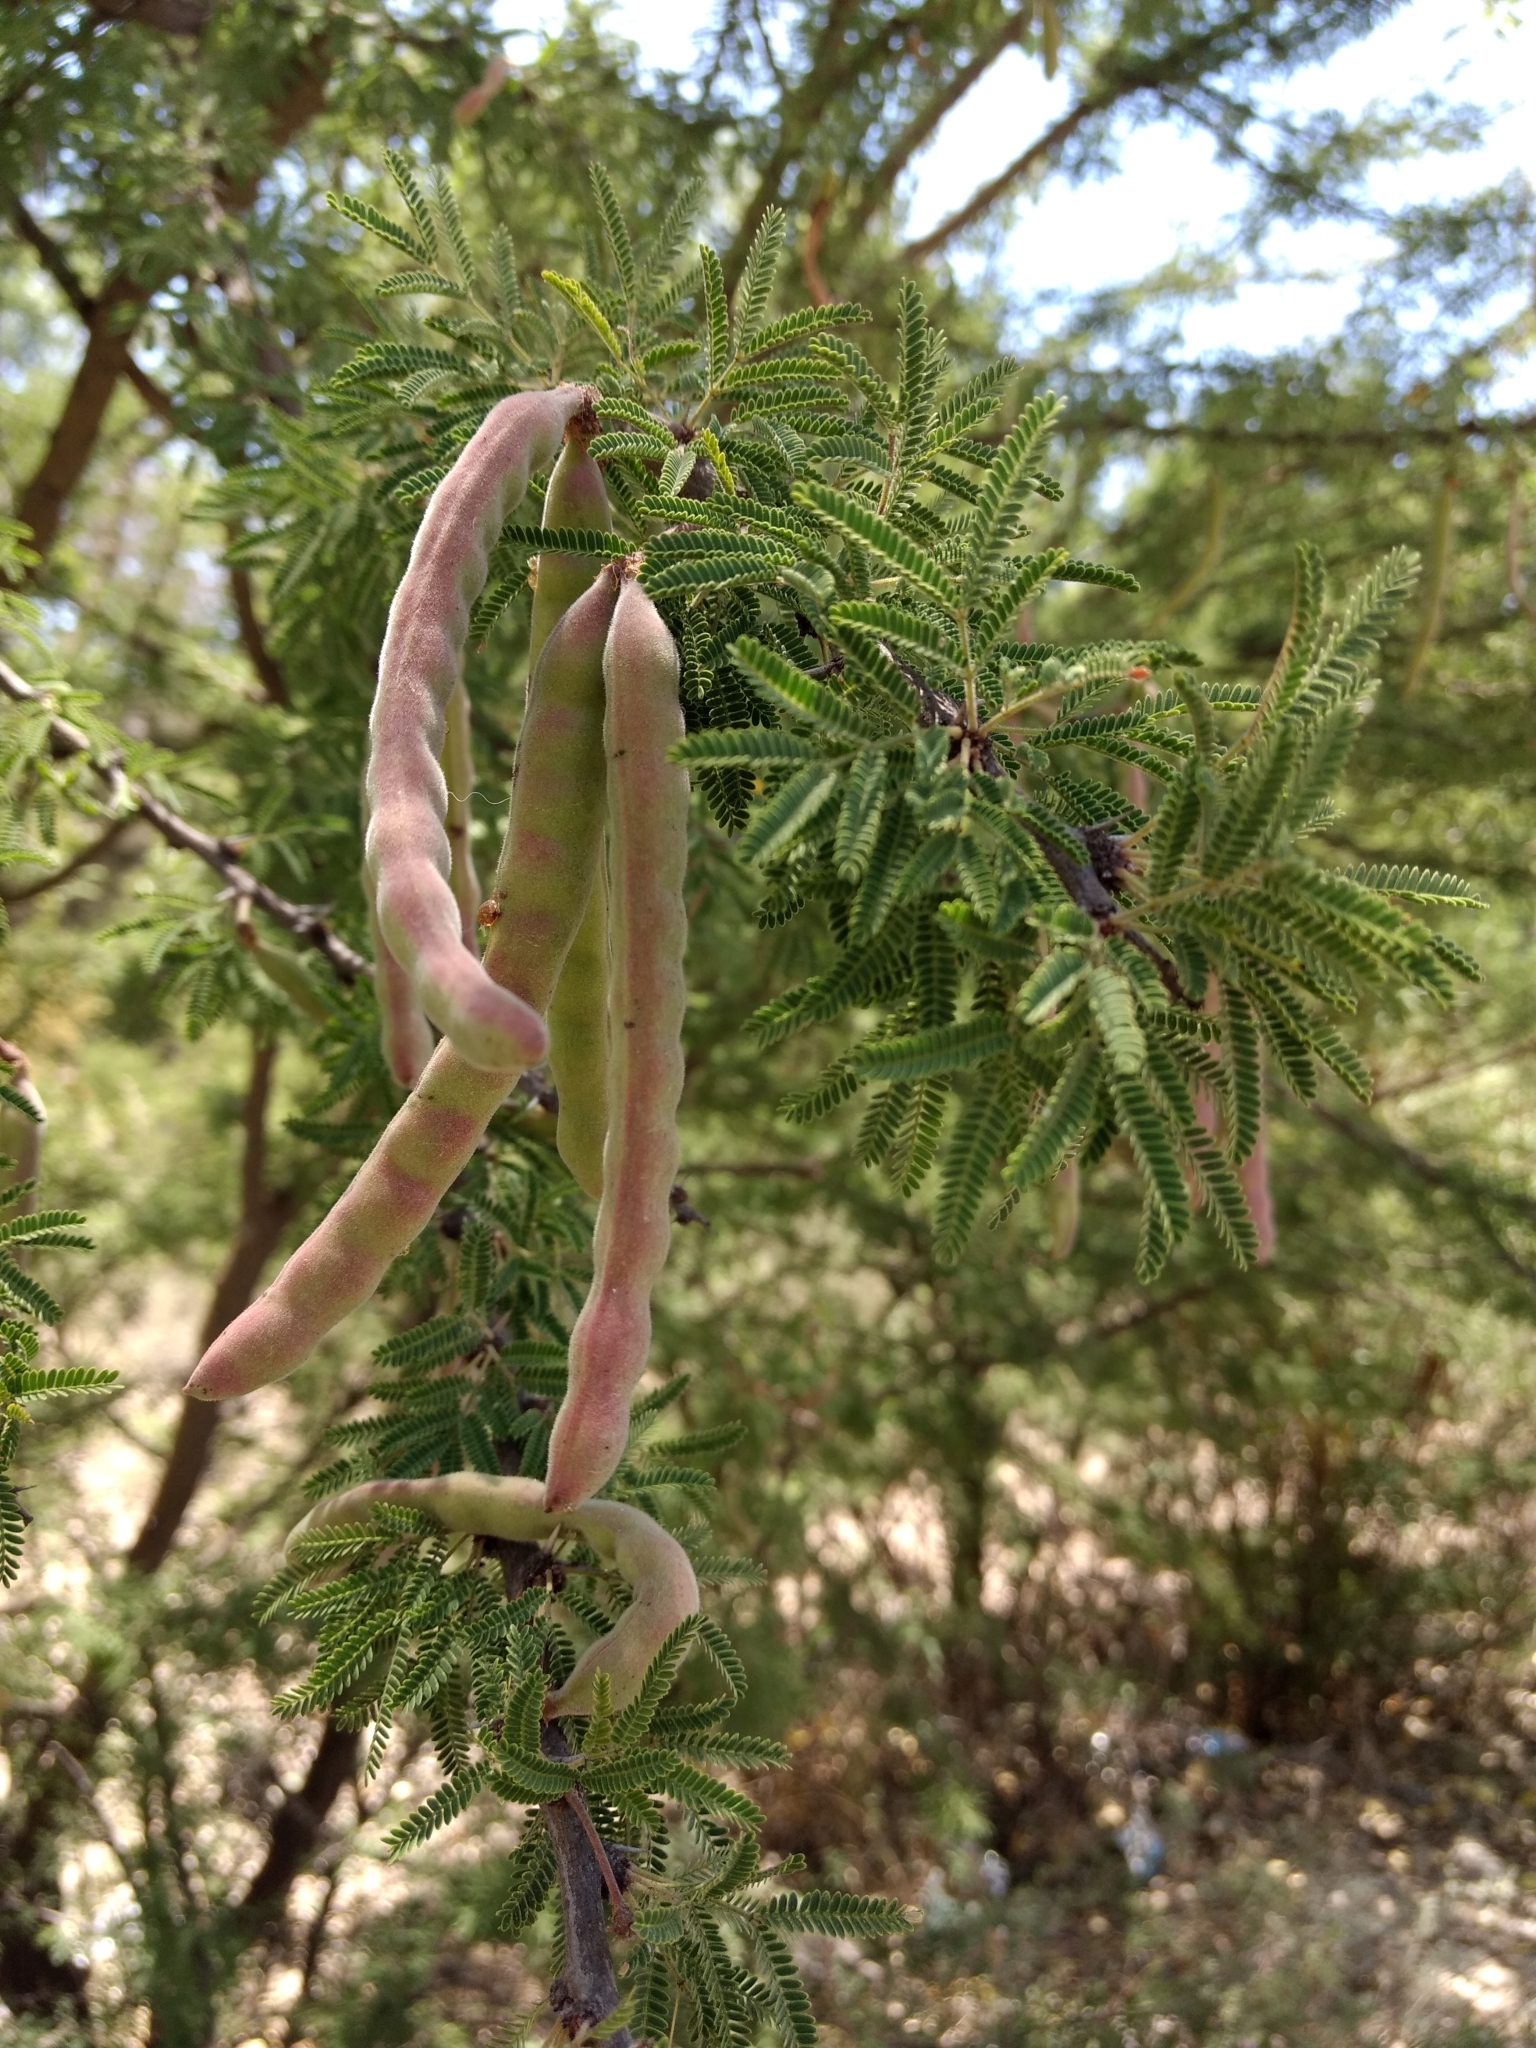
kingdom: Plantae
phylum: Tracheophyta
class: Magnoliopsida
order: Fabales
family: Fabaceae
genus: Vachellia
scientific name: Vachellia schaffneri
